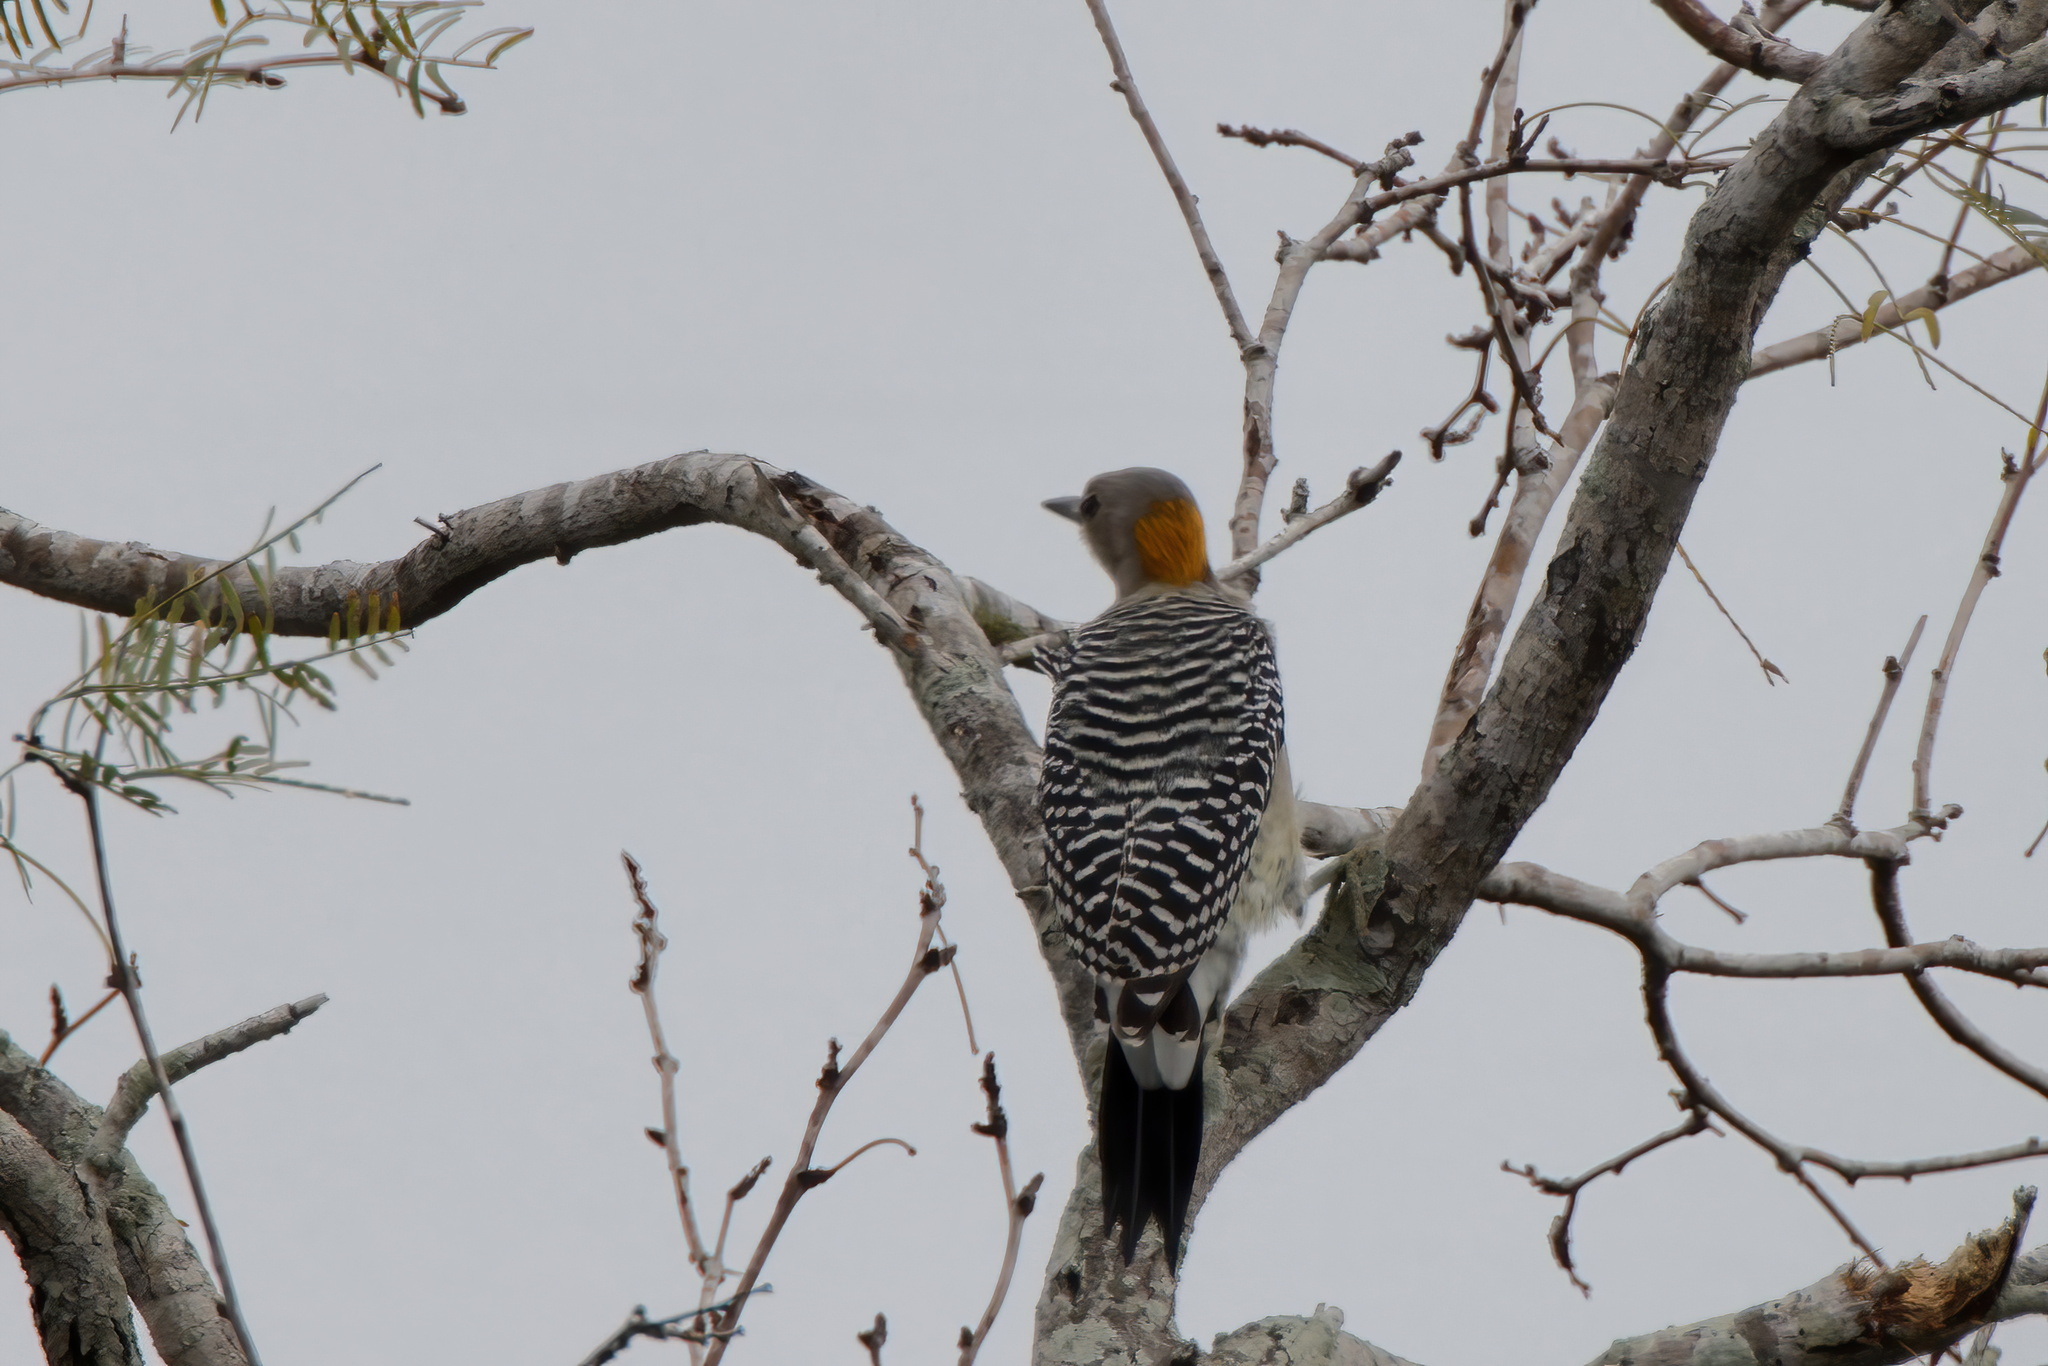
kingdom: Animalia
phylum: Chordata
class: Aves
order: Piciformes
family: Picidae
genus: Melanerpes
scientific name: Melanerpes aurifrons
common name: Golden-fronted woodpecker
